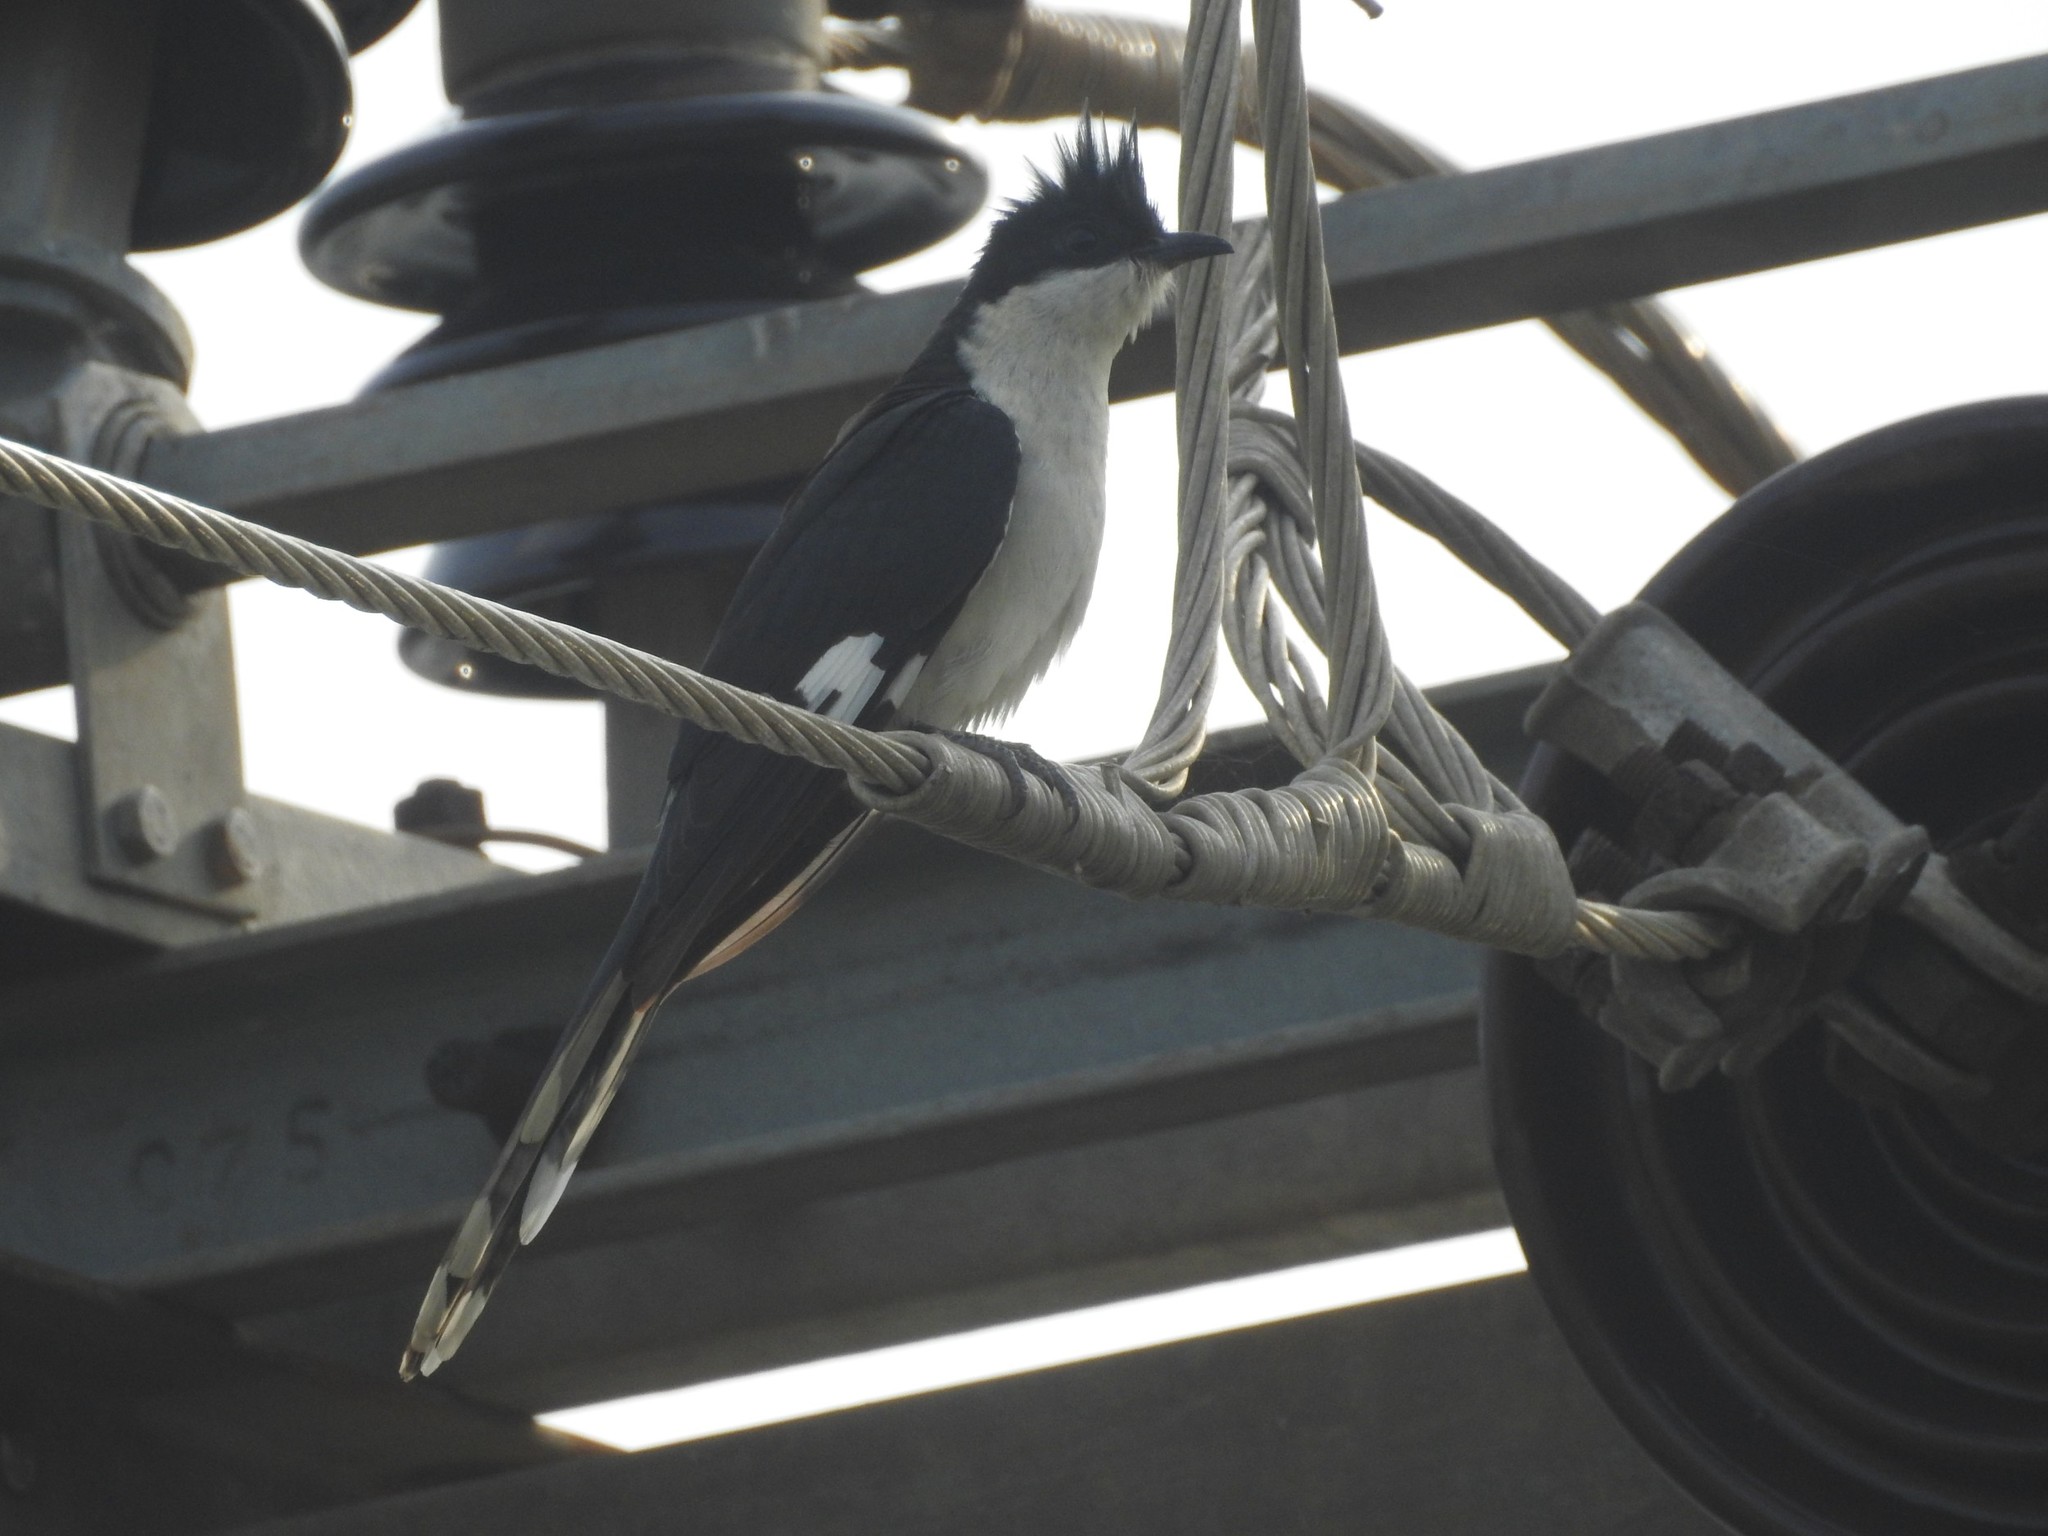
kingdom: Animalia
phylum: Chordata
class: Aves
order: Cuculiformes
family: Cuculidae
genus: Clamator
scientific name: Clamator jacobinus
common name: Jacobin cuckoo
